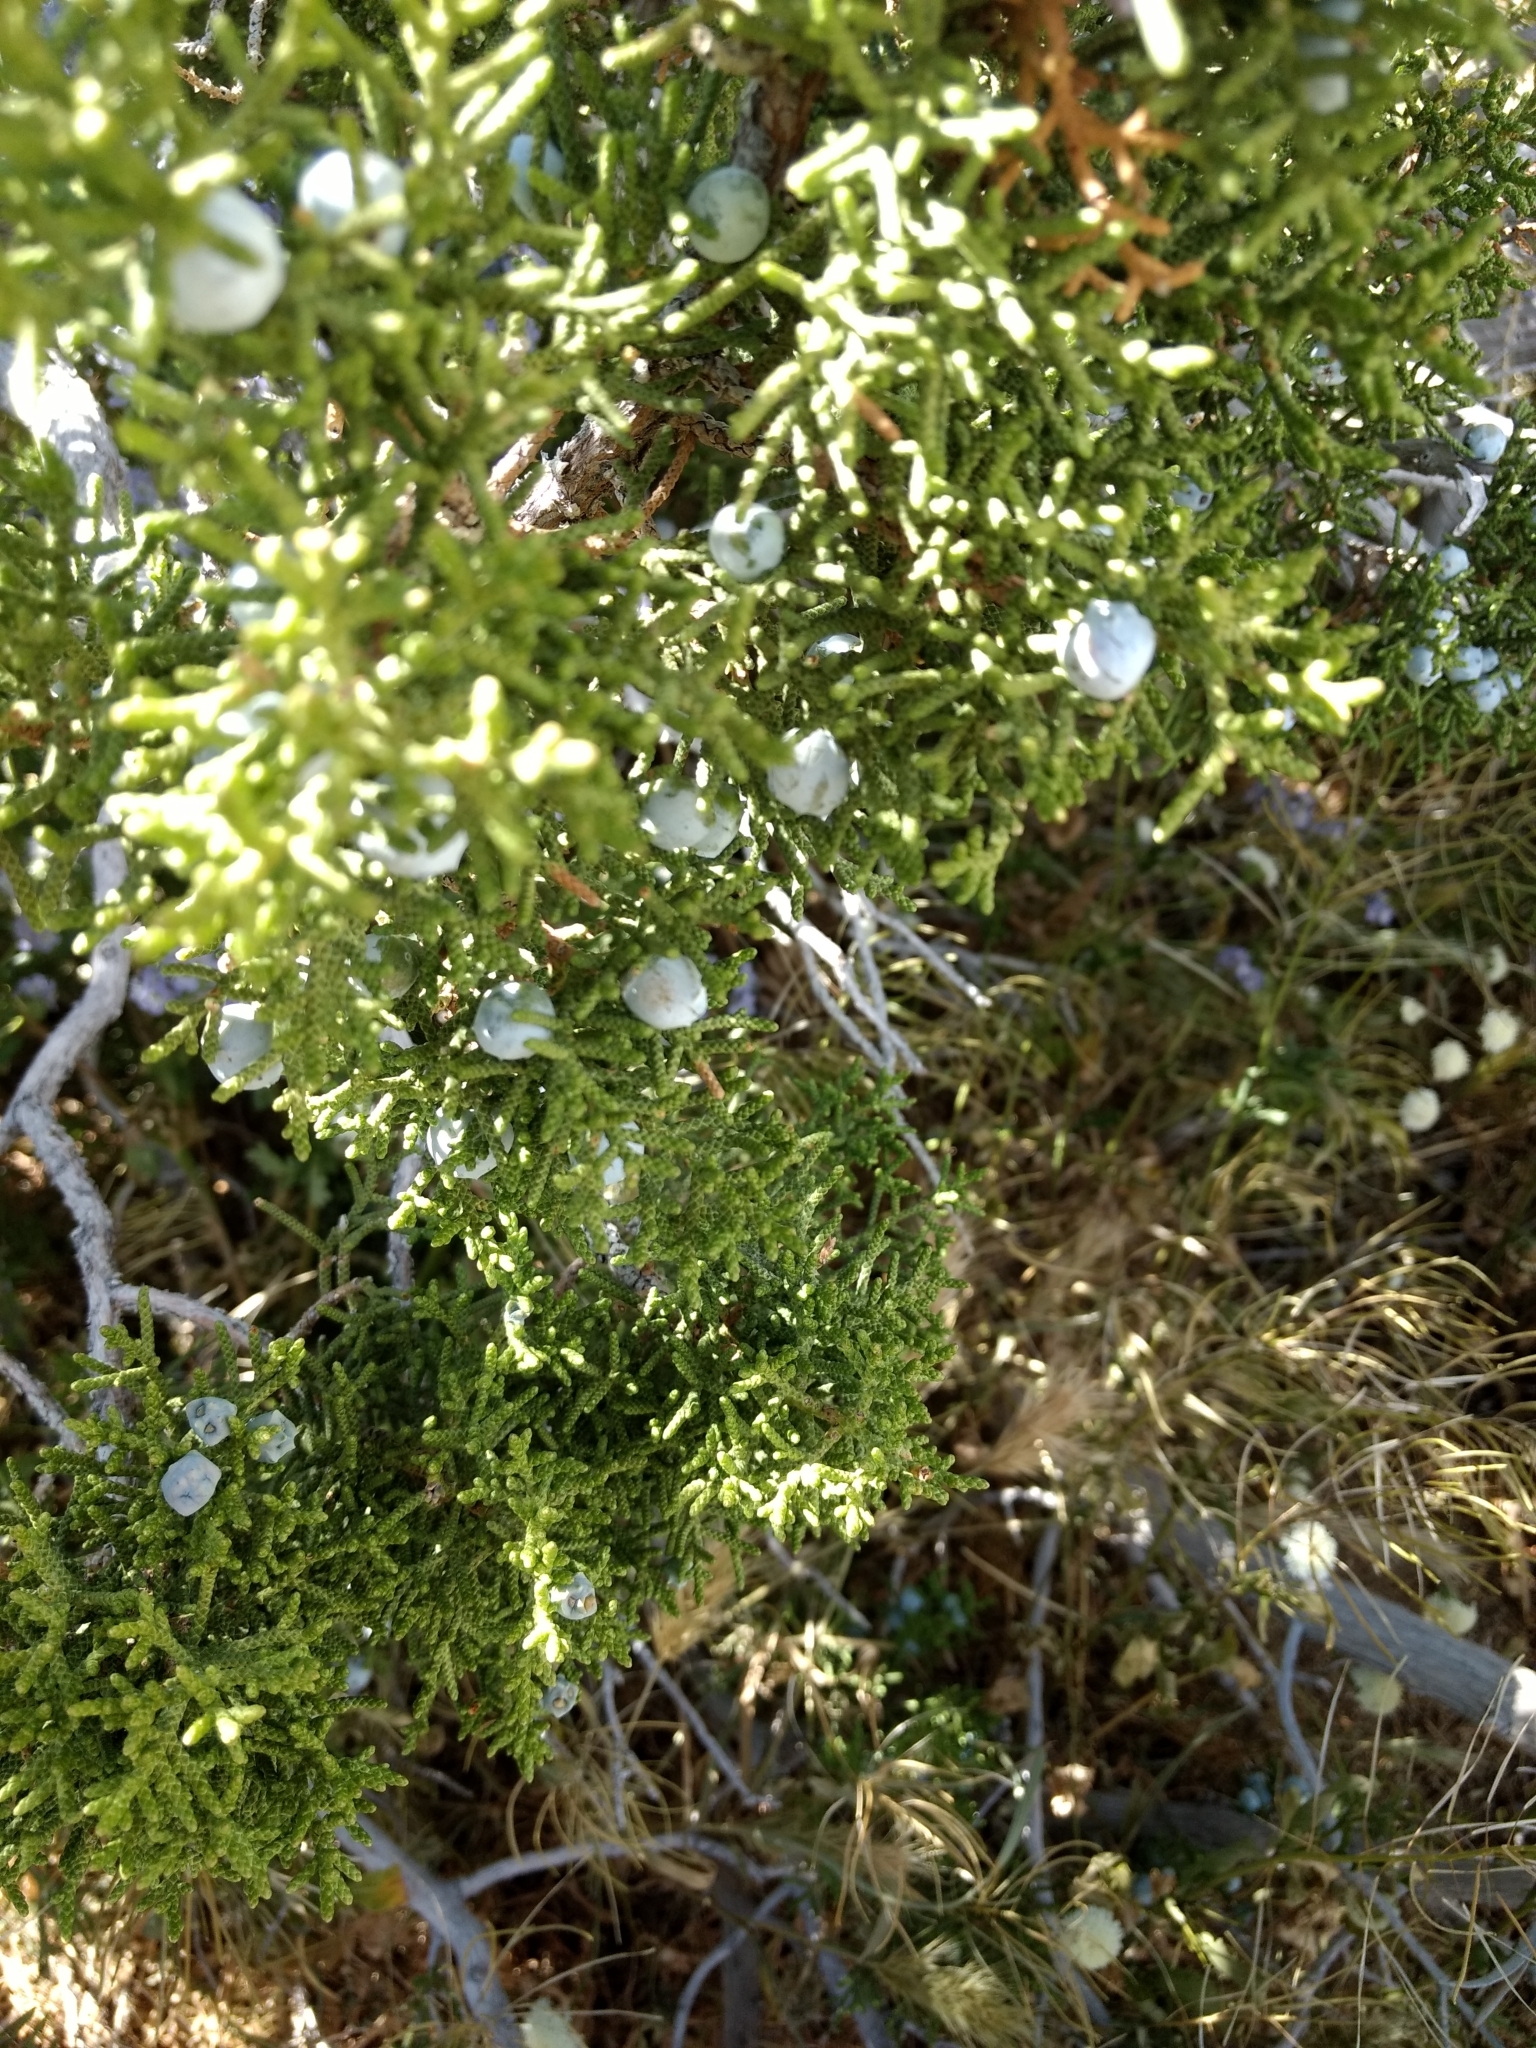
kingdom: Plantae
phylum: Tracheophyta
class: Pinopsida
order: Pinales
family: Cupressaceae
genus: Juniperus
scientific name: Juniperus californica
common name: California juniper
